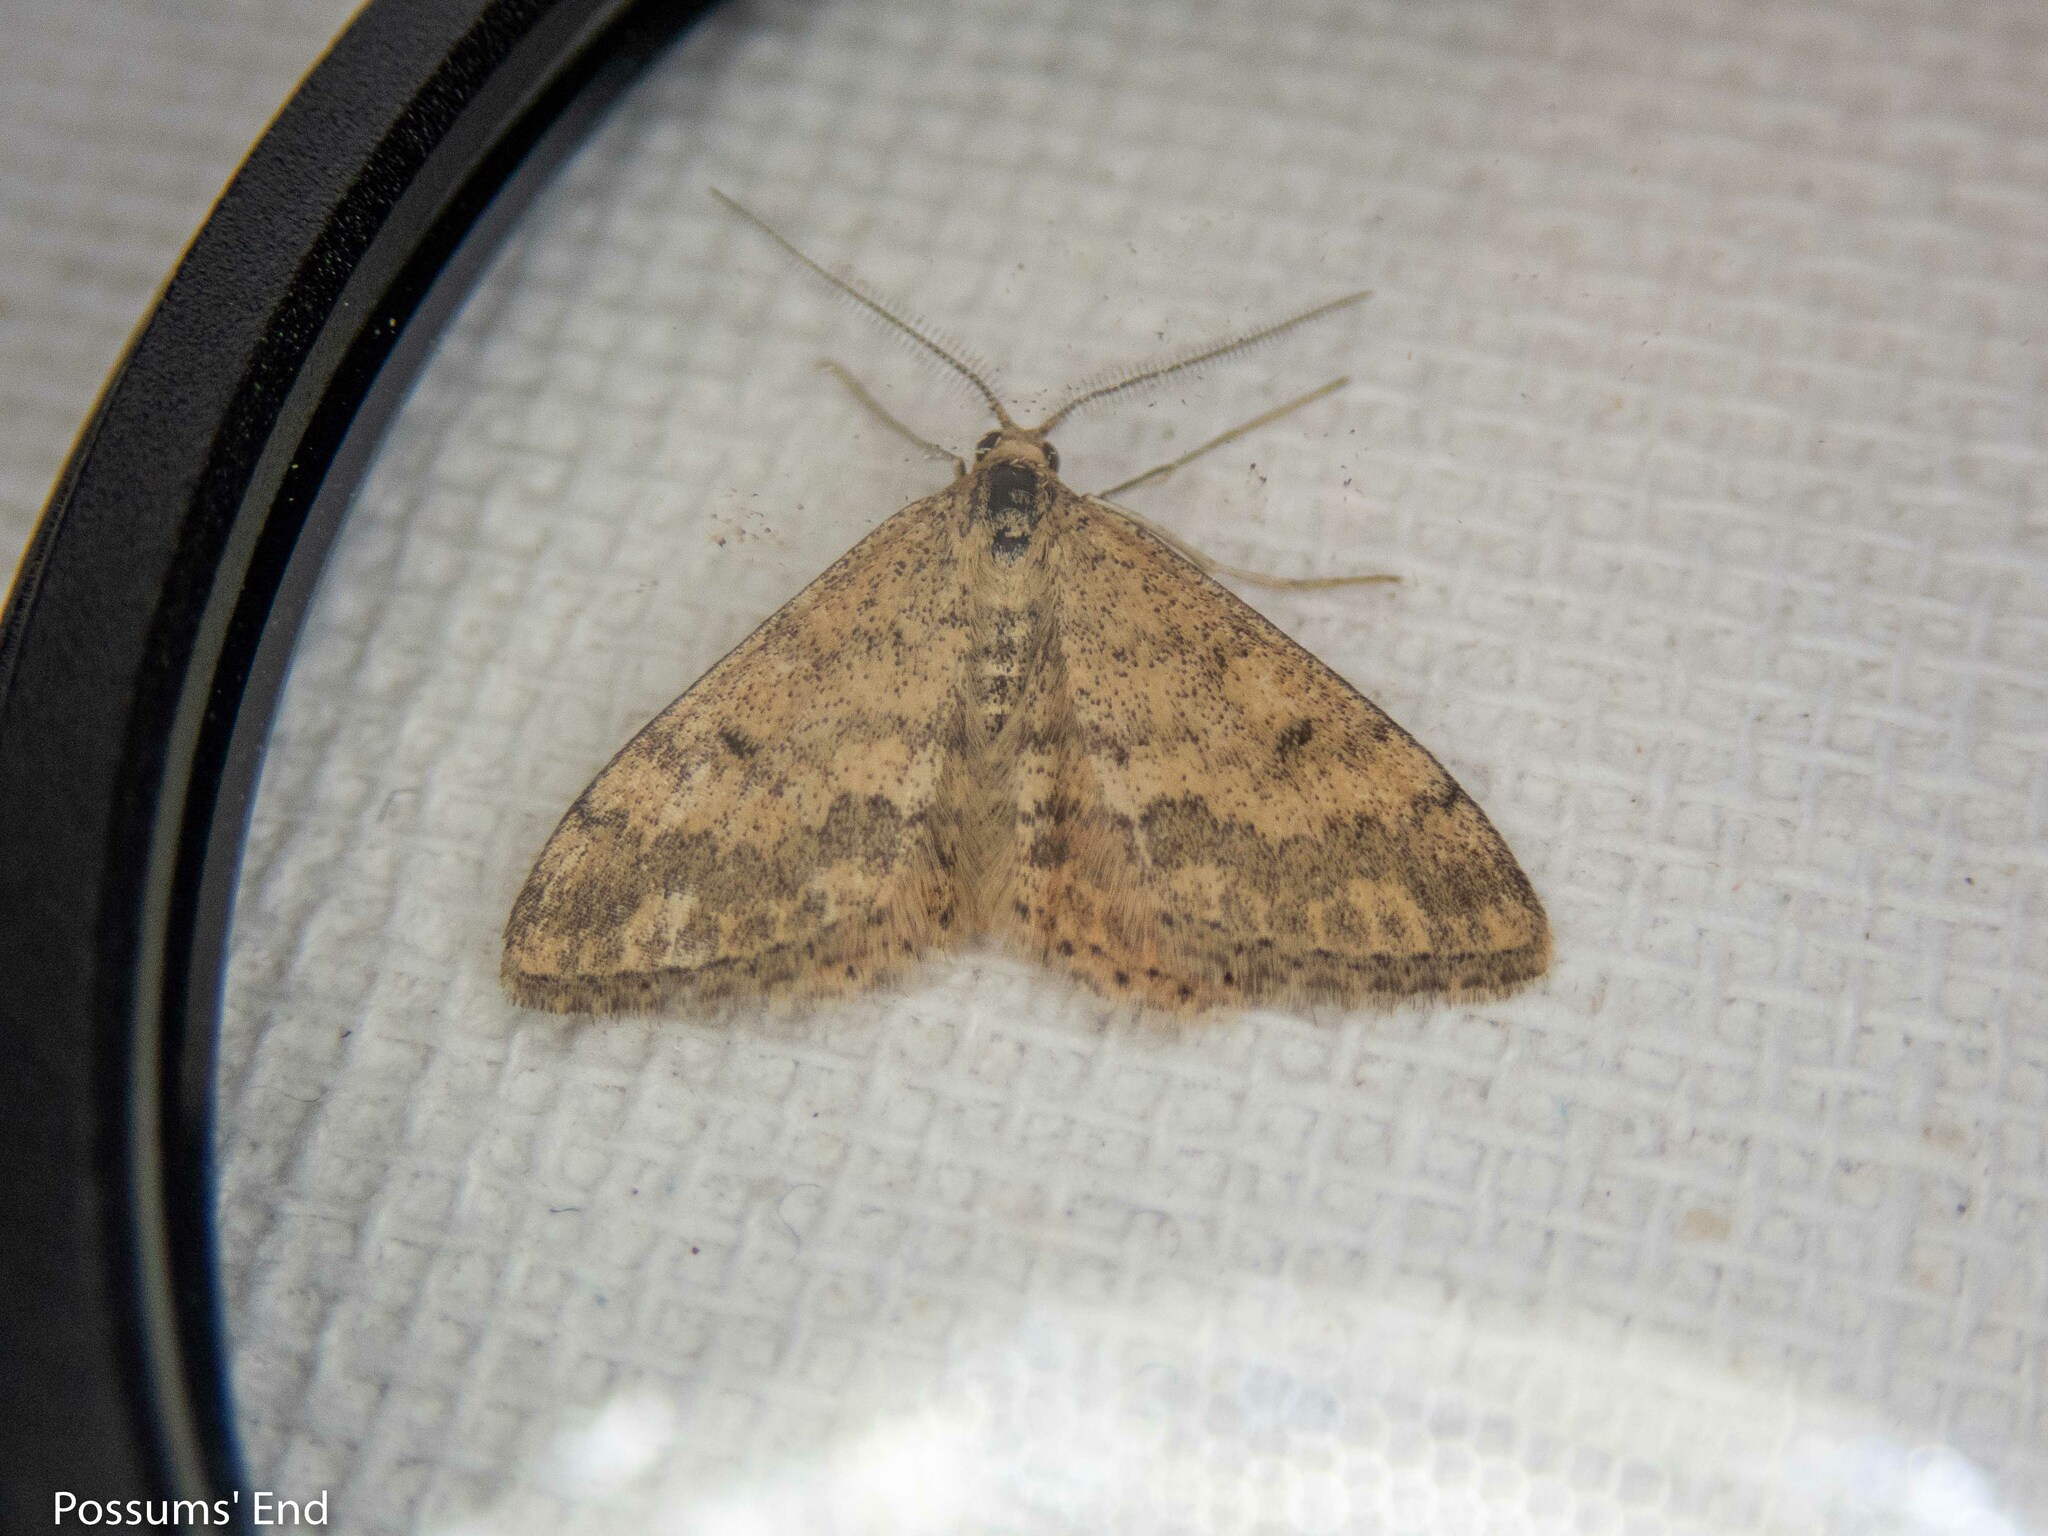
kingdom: Animalia
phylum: Arthropoda
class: Insecta
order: Lepidoptera
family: Geometridae
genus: Scopula
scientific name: Scopula rubraria
